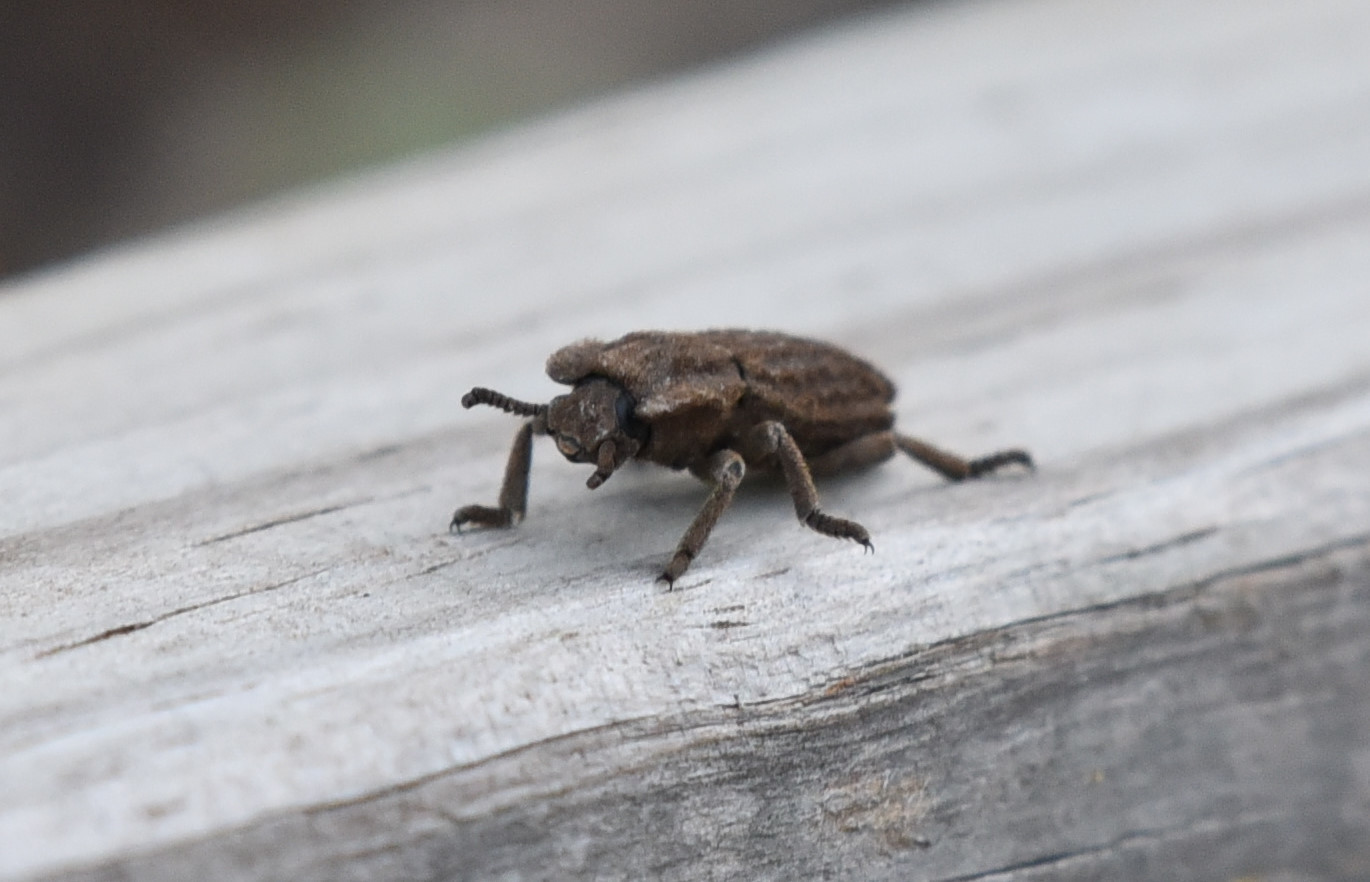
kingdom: Animalia
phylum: Arthropoda
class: Insecta
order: Coleoptera
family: Zopheridae
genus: Sesaspis
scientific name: Sesaspis
